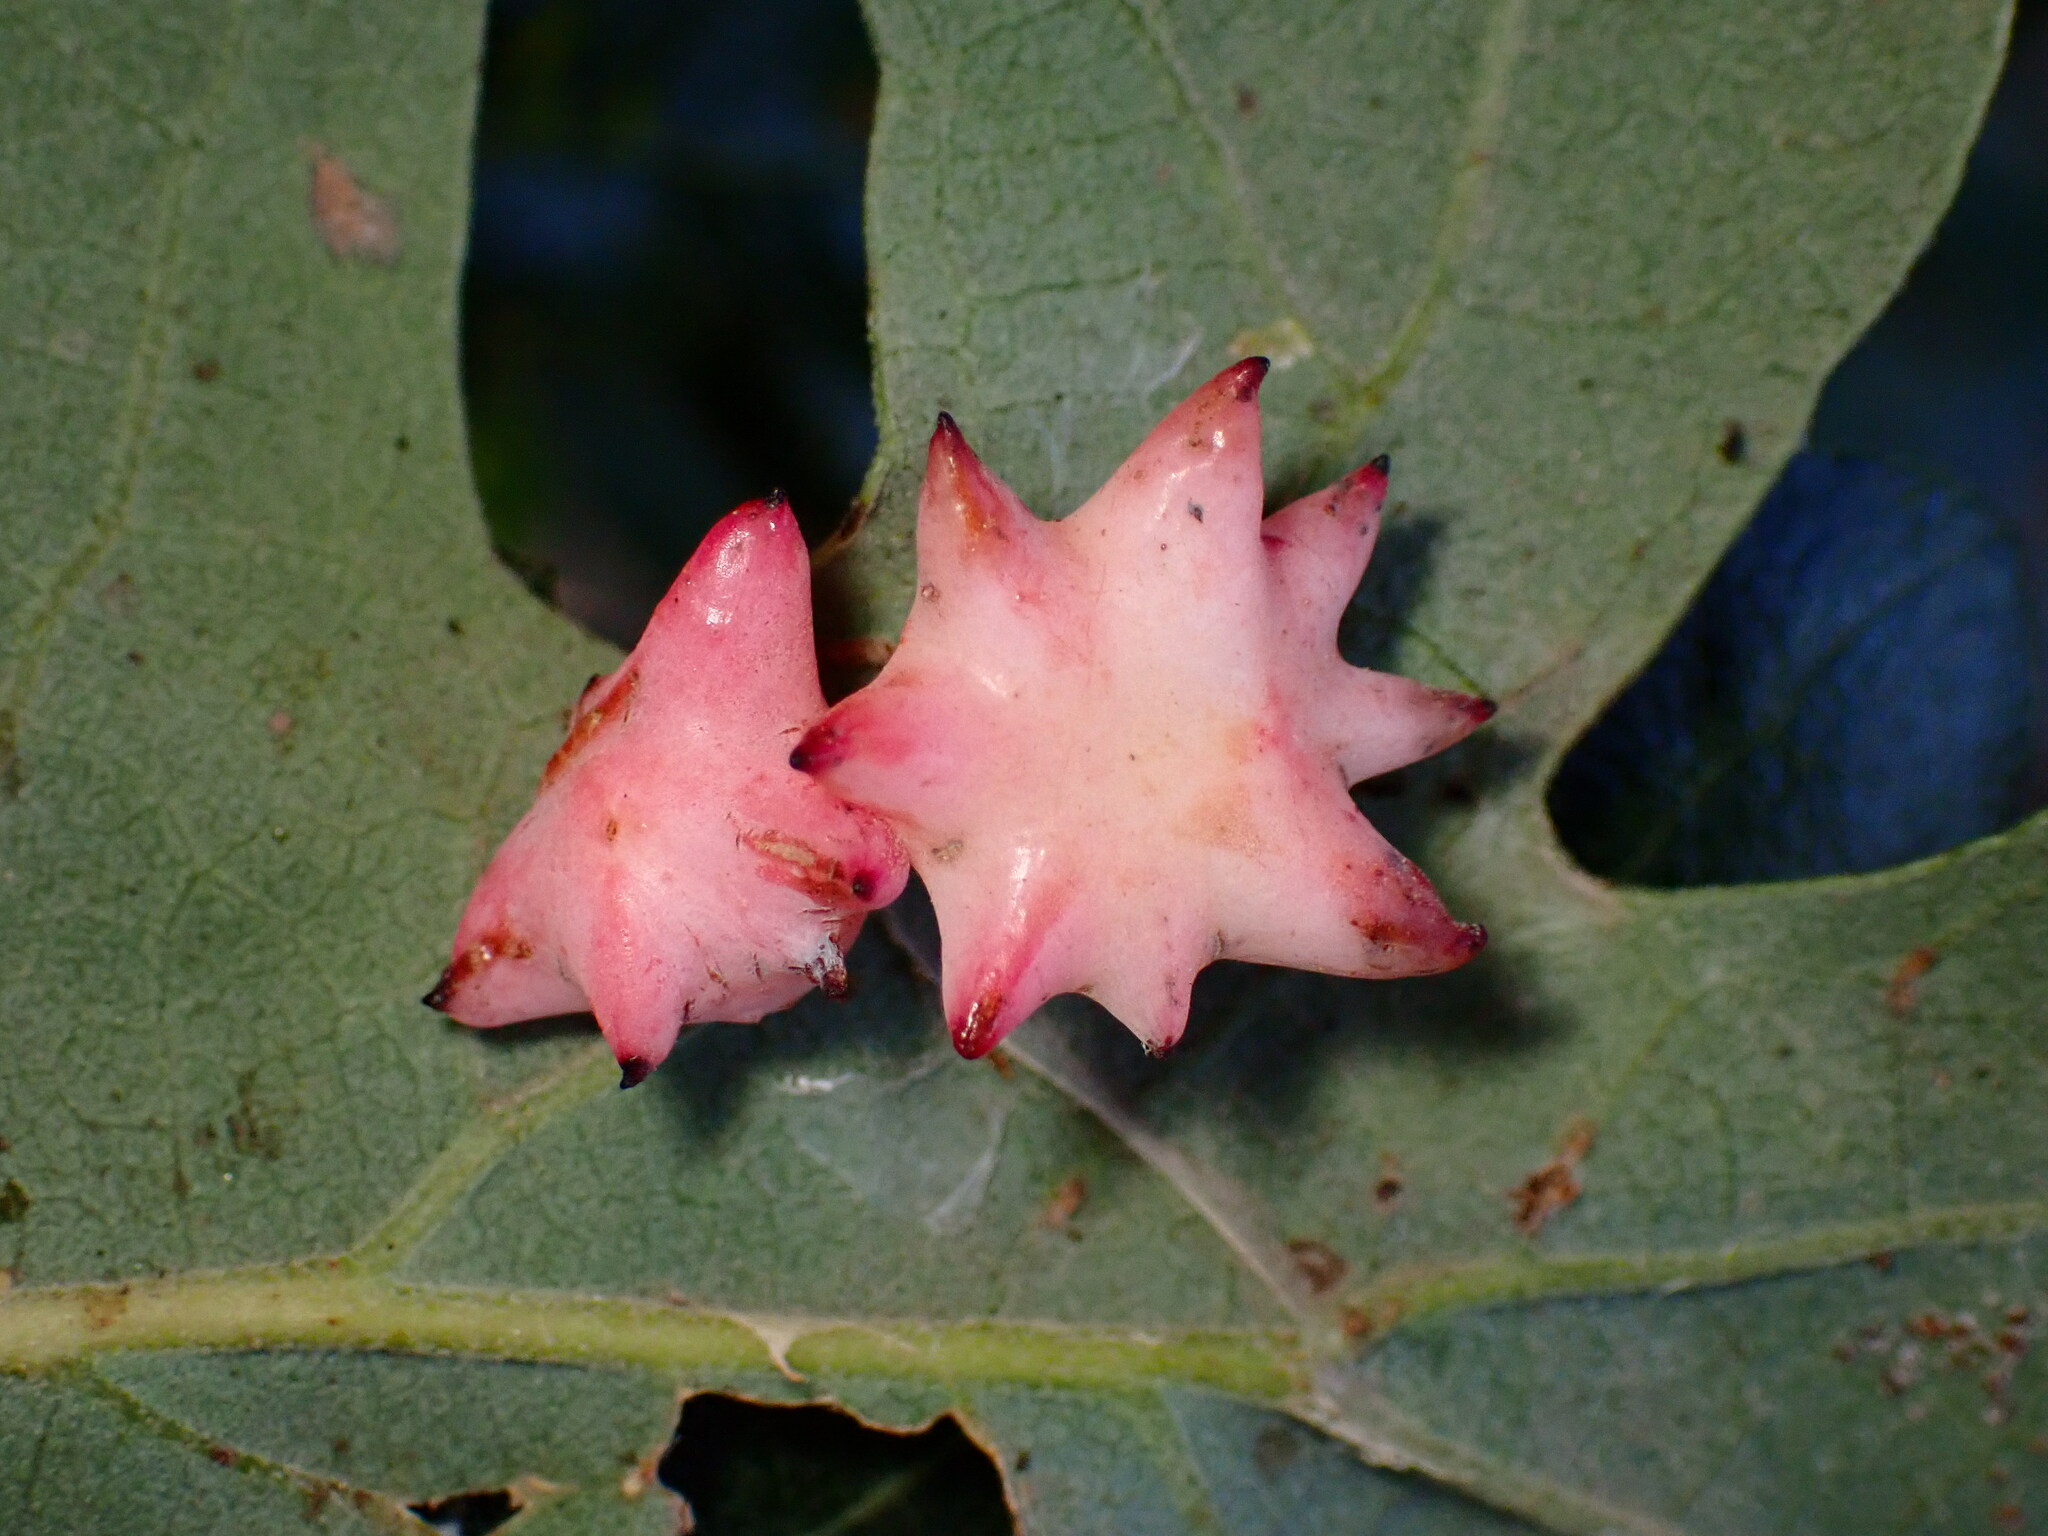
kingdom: Animalia
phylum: Arthropoda
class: Insecta
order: Hymenoptera
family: Cynipidae
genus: Cynips
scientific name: Cynips douglasi
